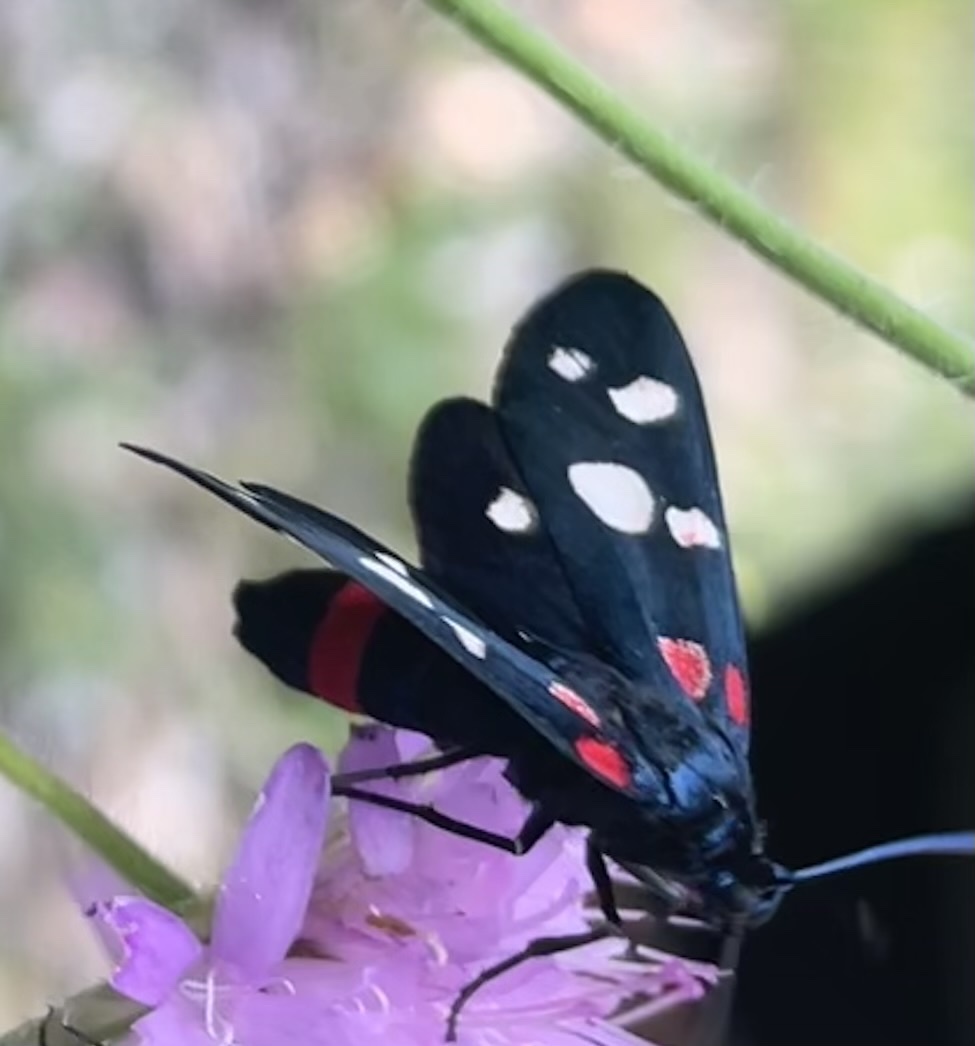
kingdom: Animalia
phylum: Arthropoda
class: Insecta
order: Lepidoptera
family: Zygaenidae
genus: Zygaena
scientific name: Zygaena ephialtes
